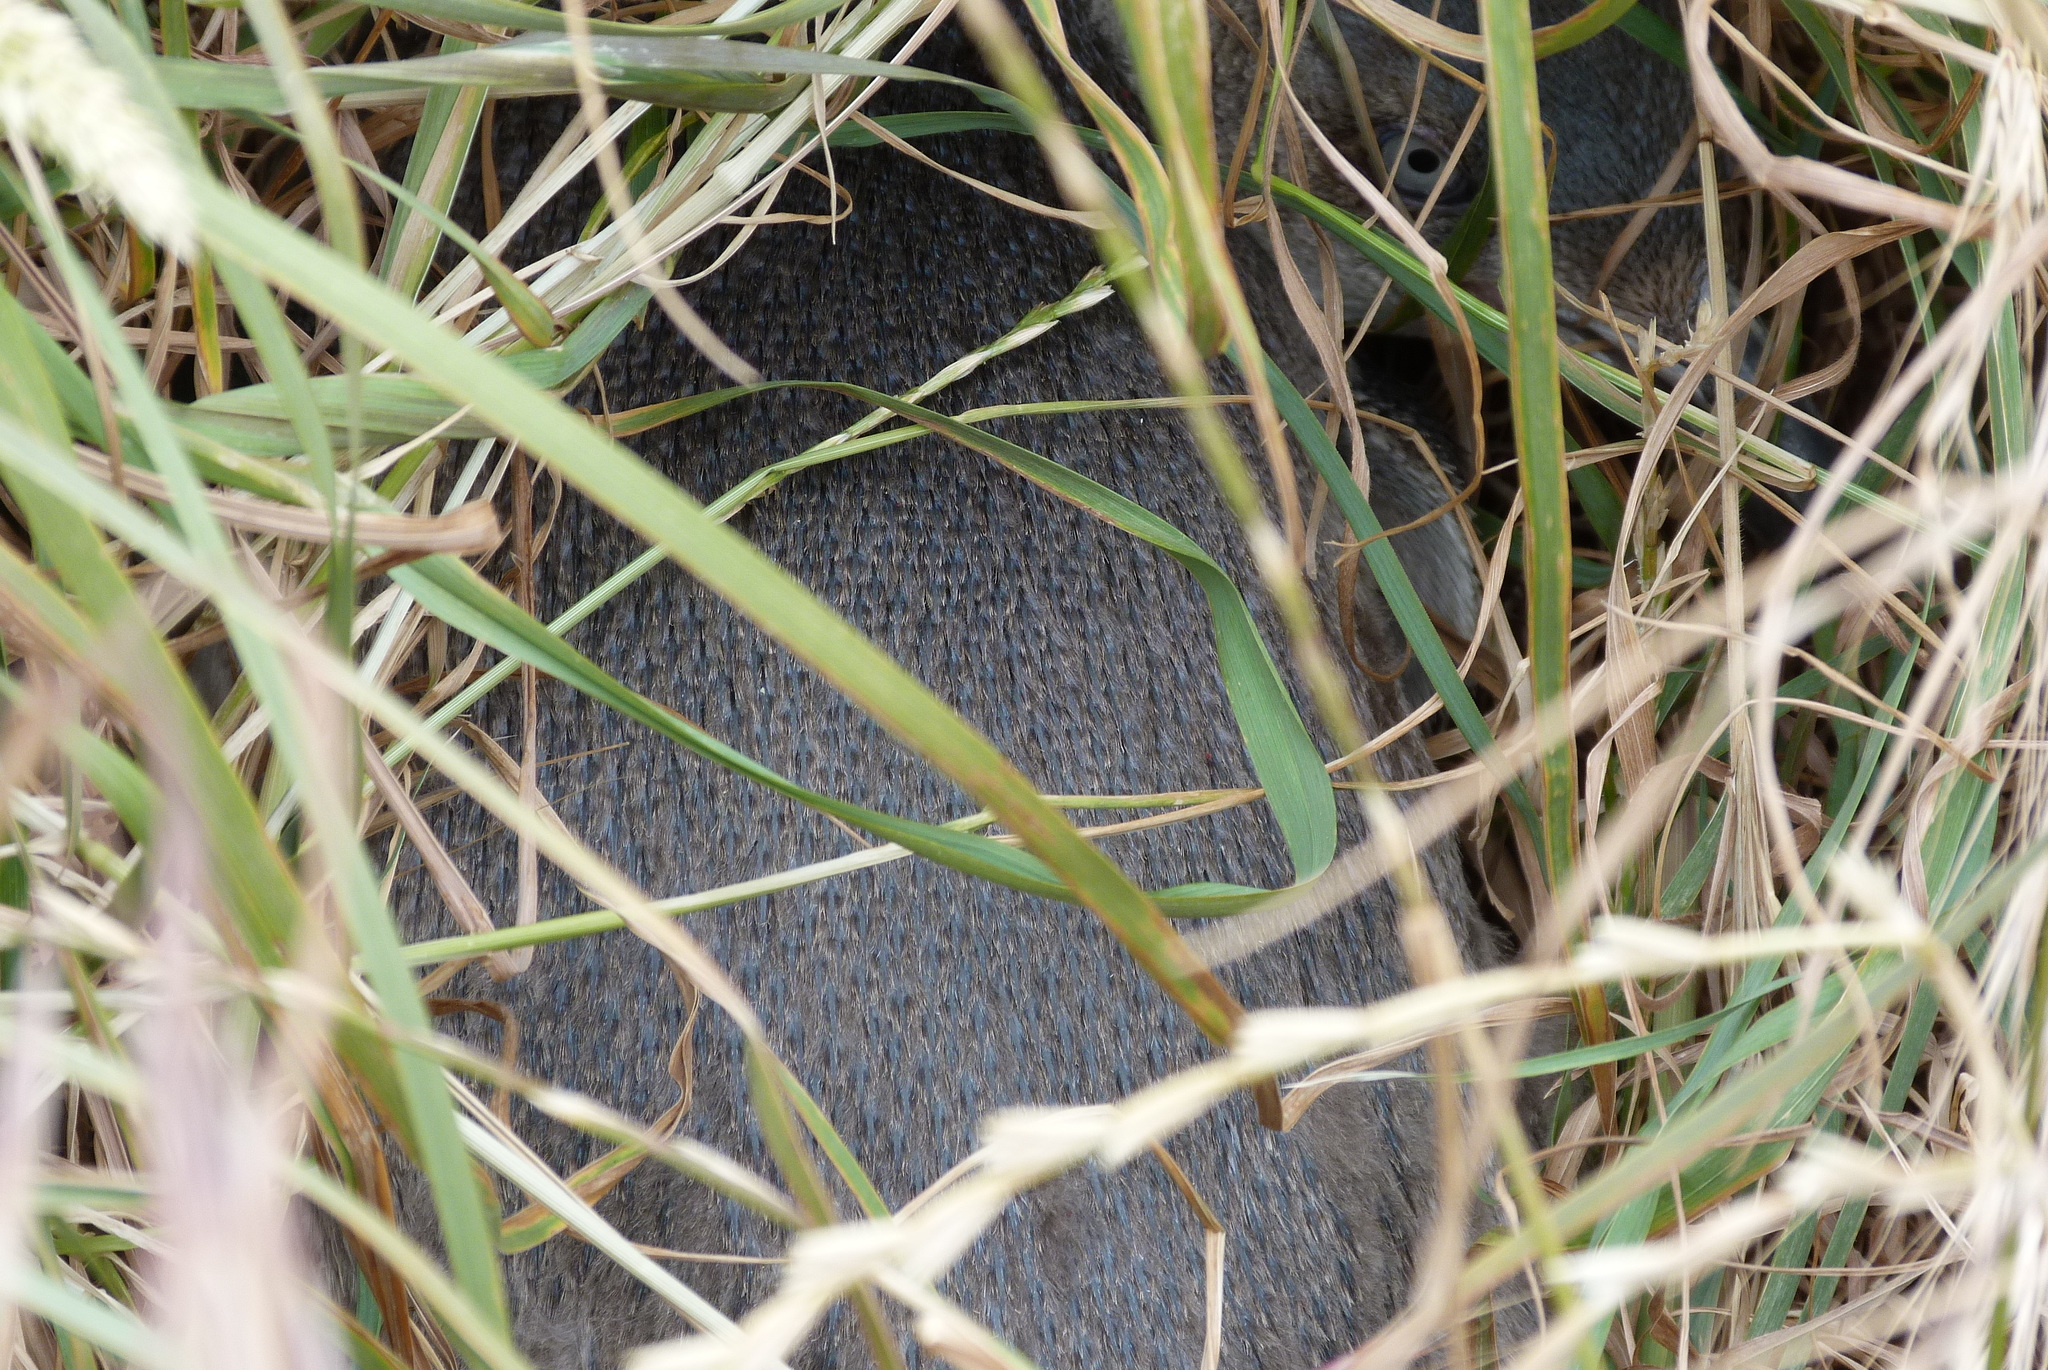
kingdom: Animalia
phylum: Chordata
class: Aves
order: Sphenisciformes
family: Spheniscidae
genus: Eudyptula
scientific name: Eudyptula minor
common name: Little penguin
